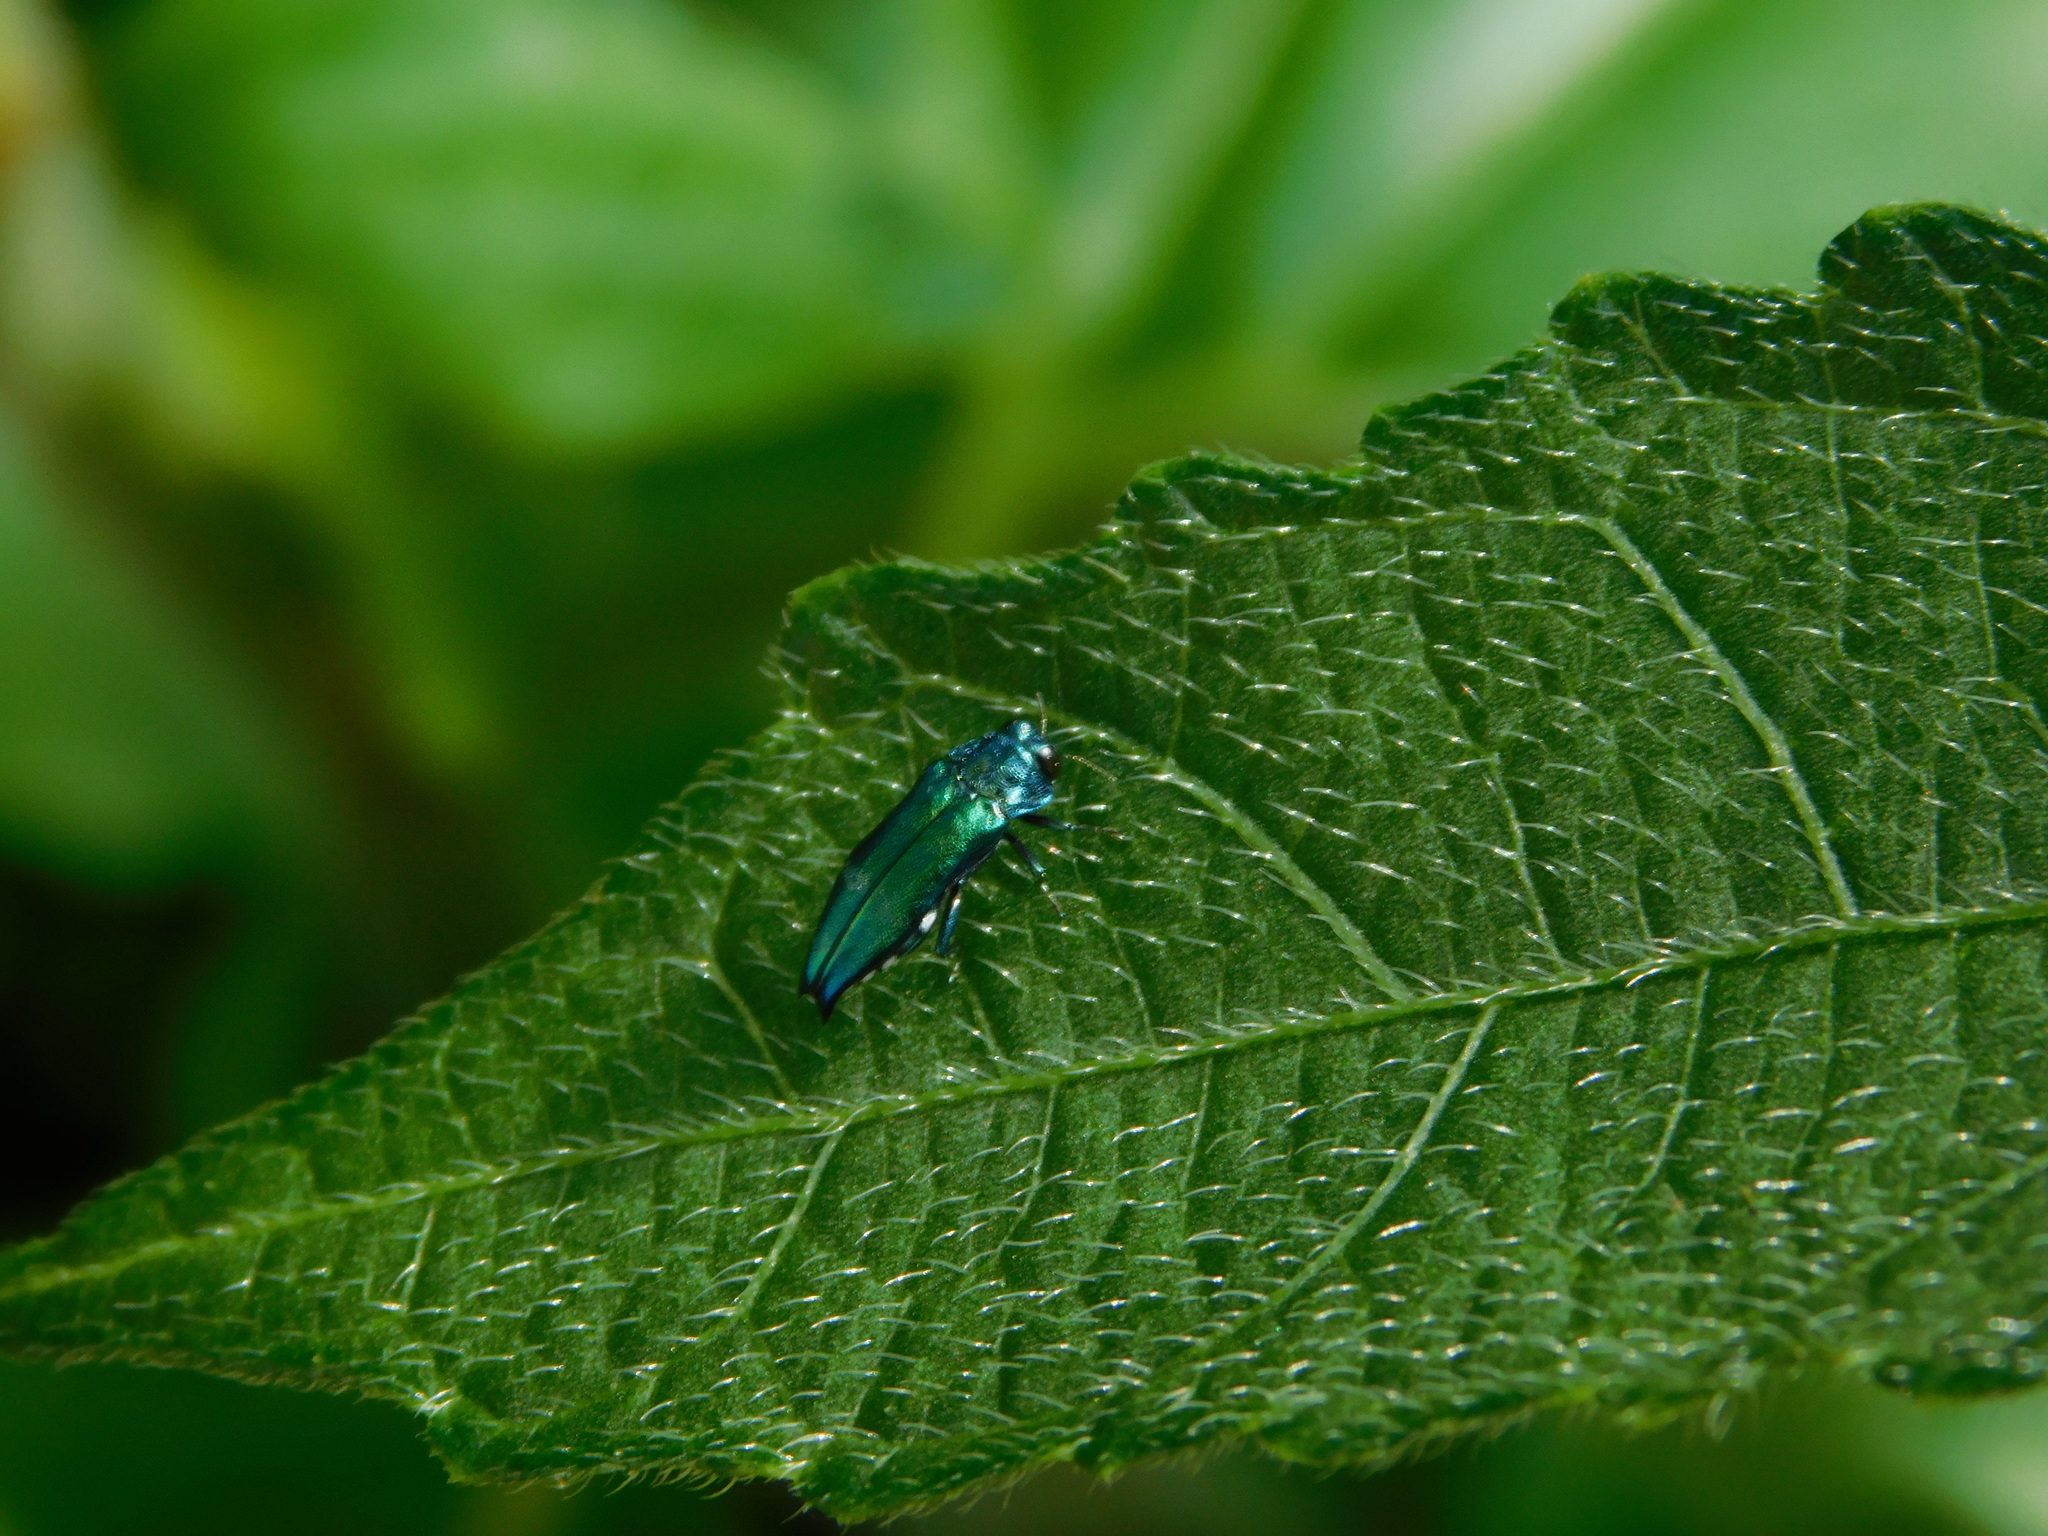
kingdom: Animalia
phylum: Arthropoda
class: Insecta
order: Coleoptera
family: Buprestidae
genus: Agrilus
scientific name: Agrilus acutus
